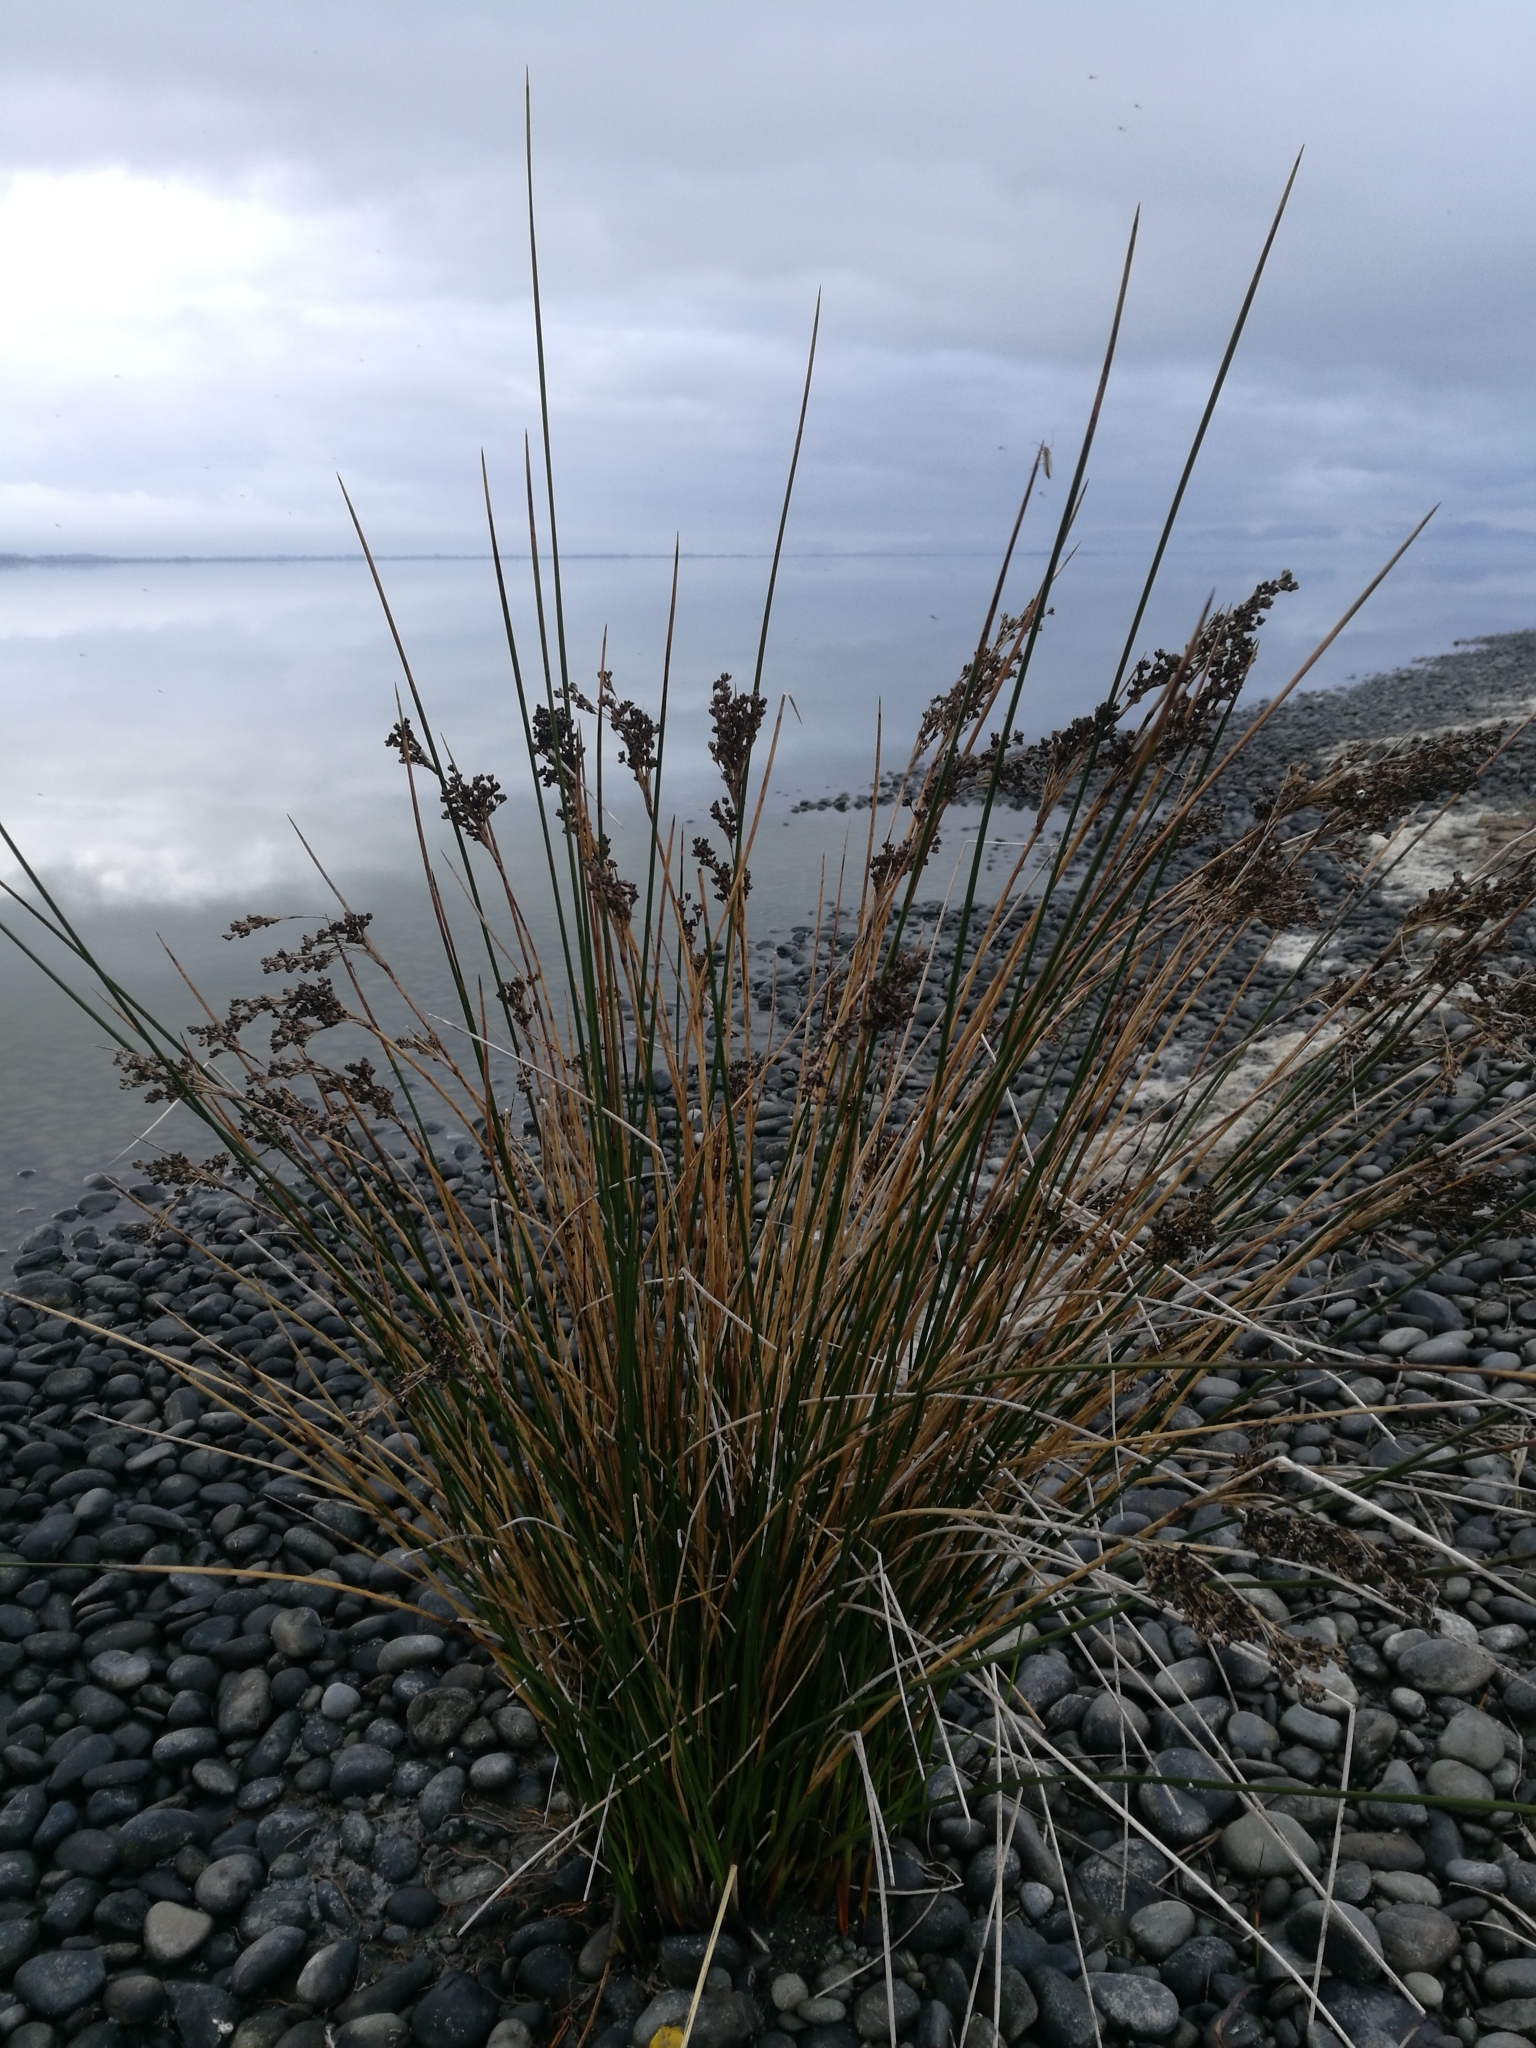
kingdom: Plantae
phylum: Tracheophyta
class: Liliopsida
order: Poales
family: Juncaceae
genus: Juncus
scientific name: Juncus kraussii
